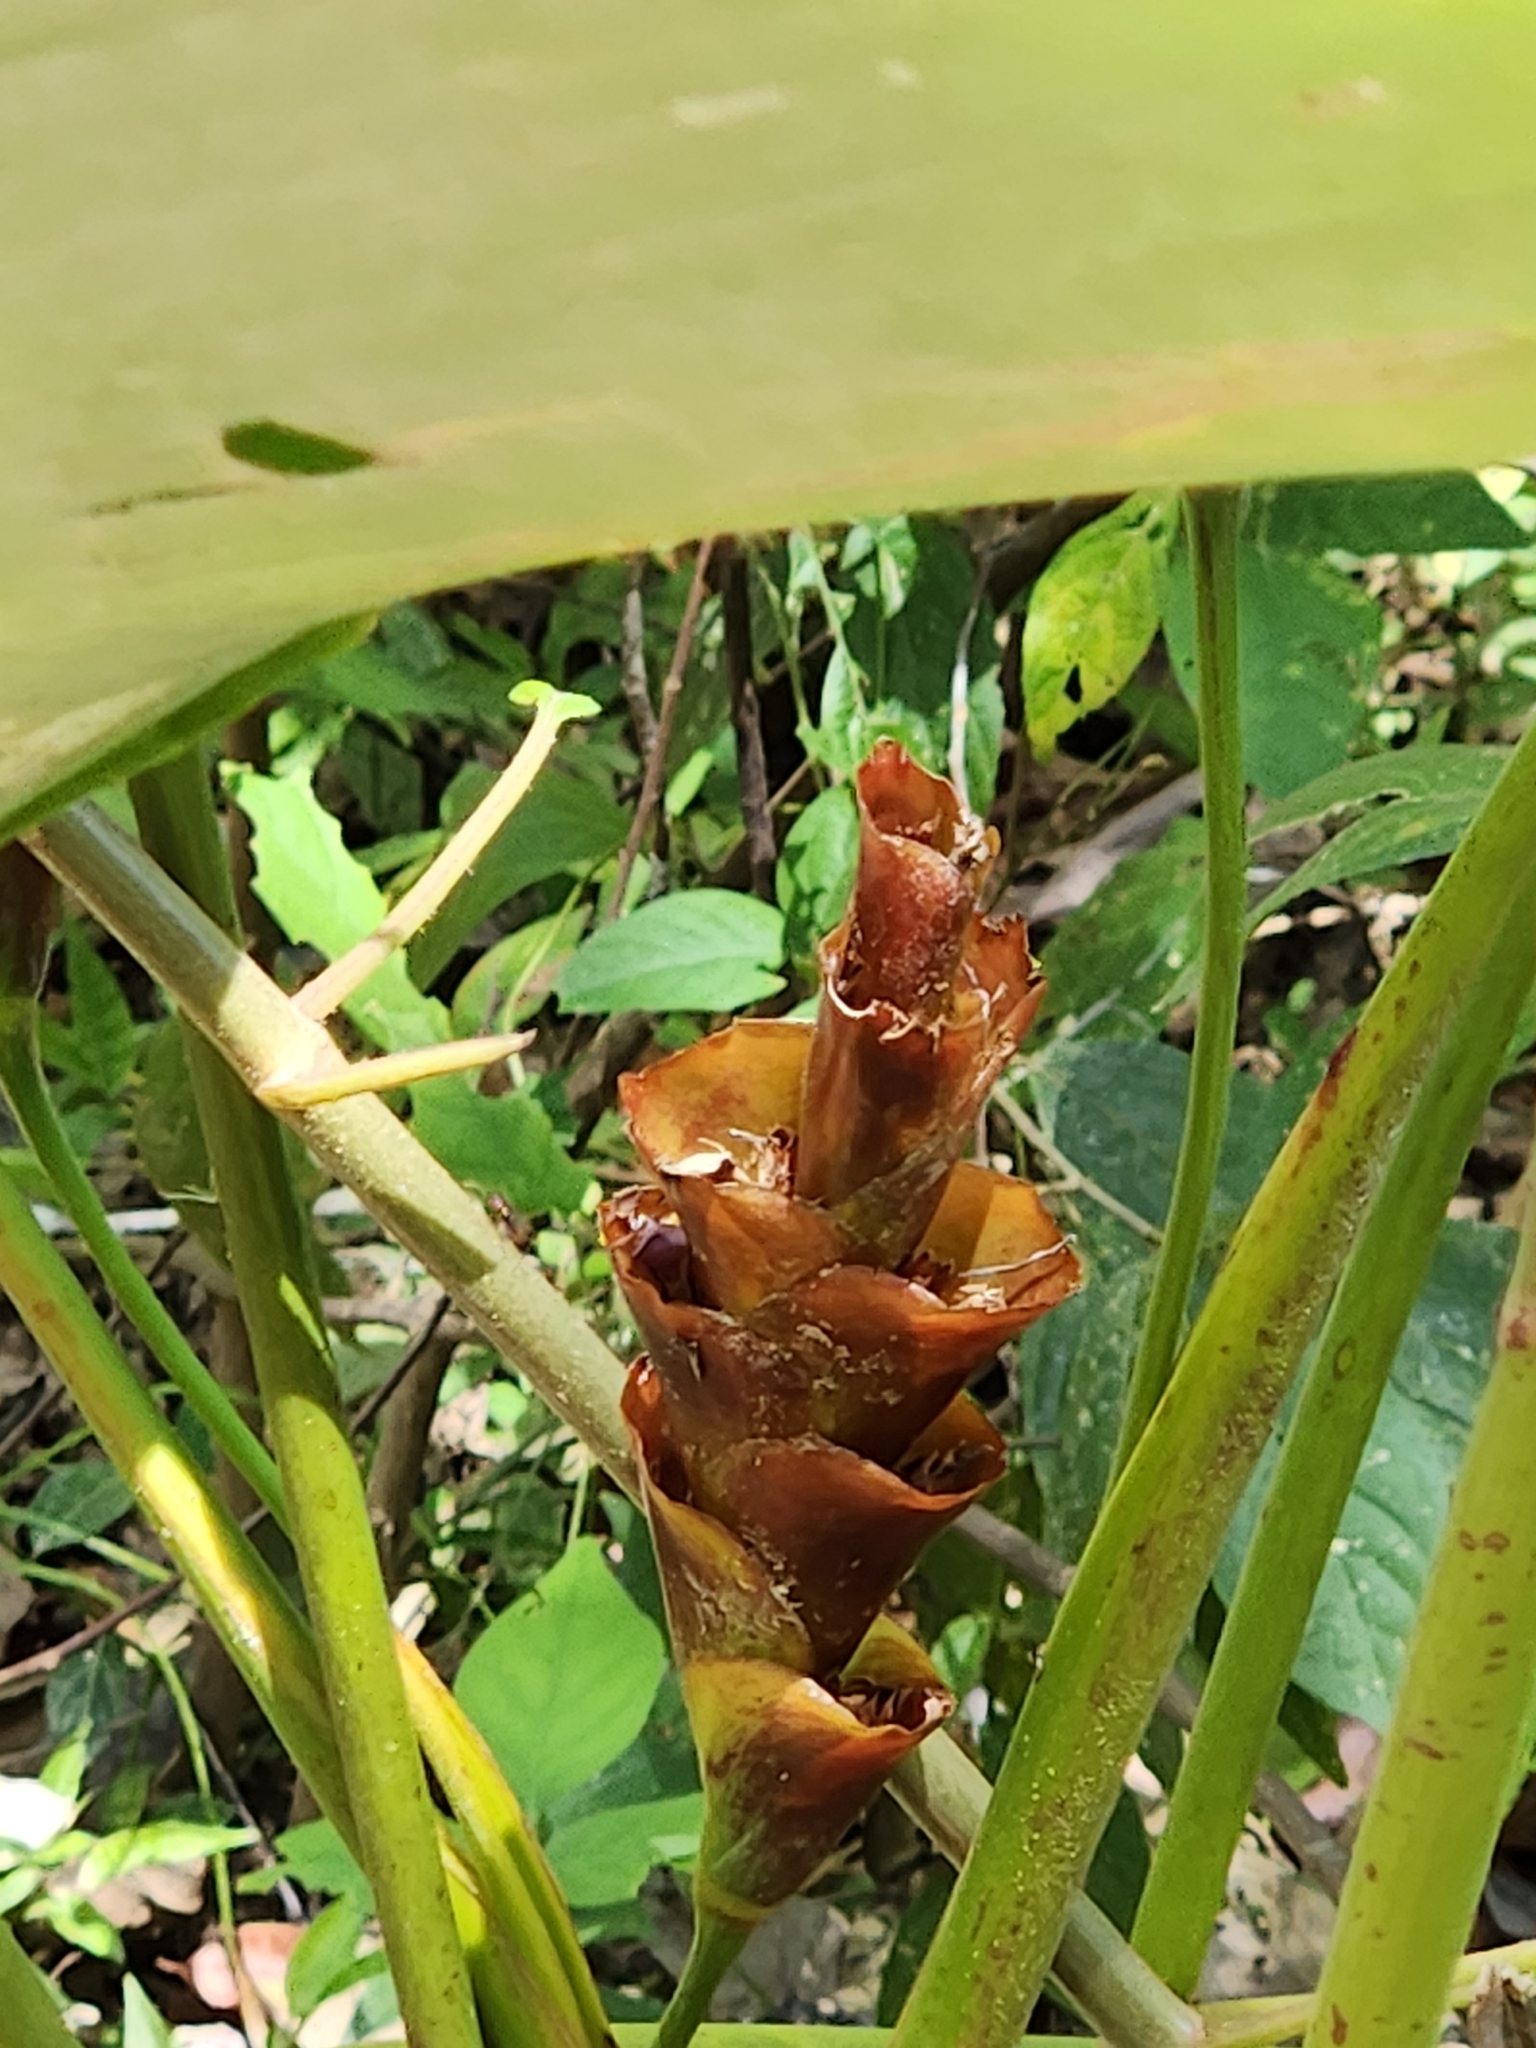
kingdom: Plantae
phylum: Tracheophyta
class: Liliopsida
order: Zingiberales
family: Marantaceae
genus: Calathea
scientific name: Calathea lutea
